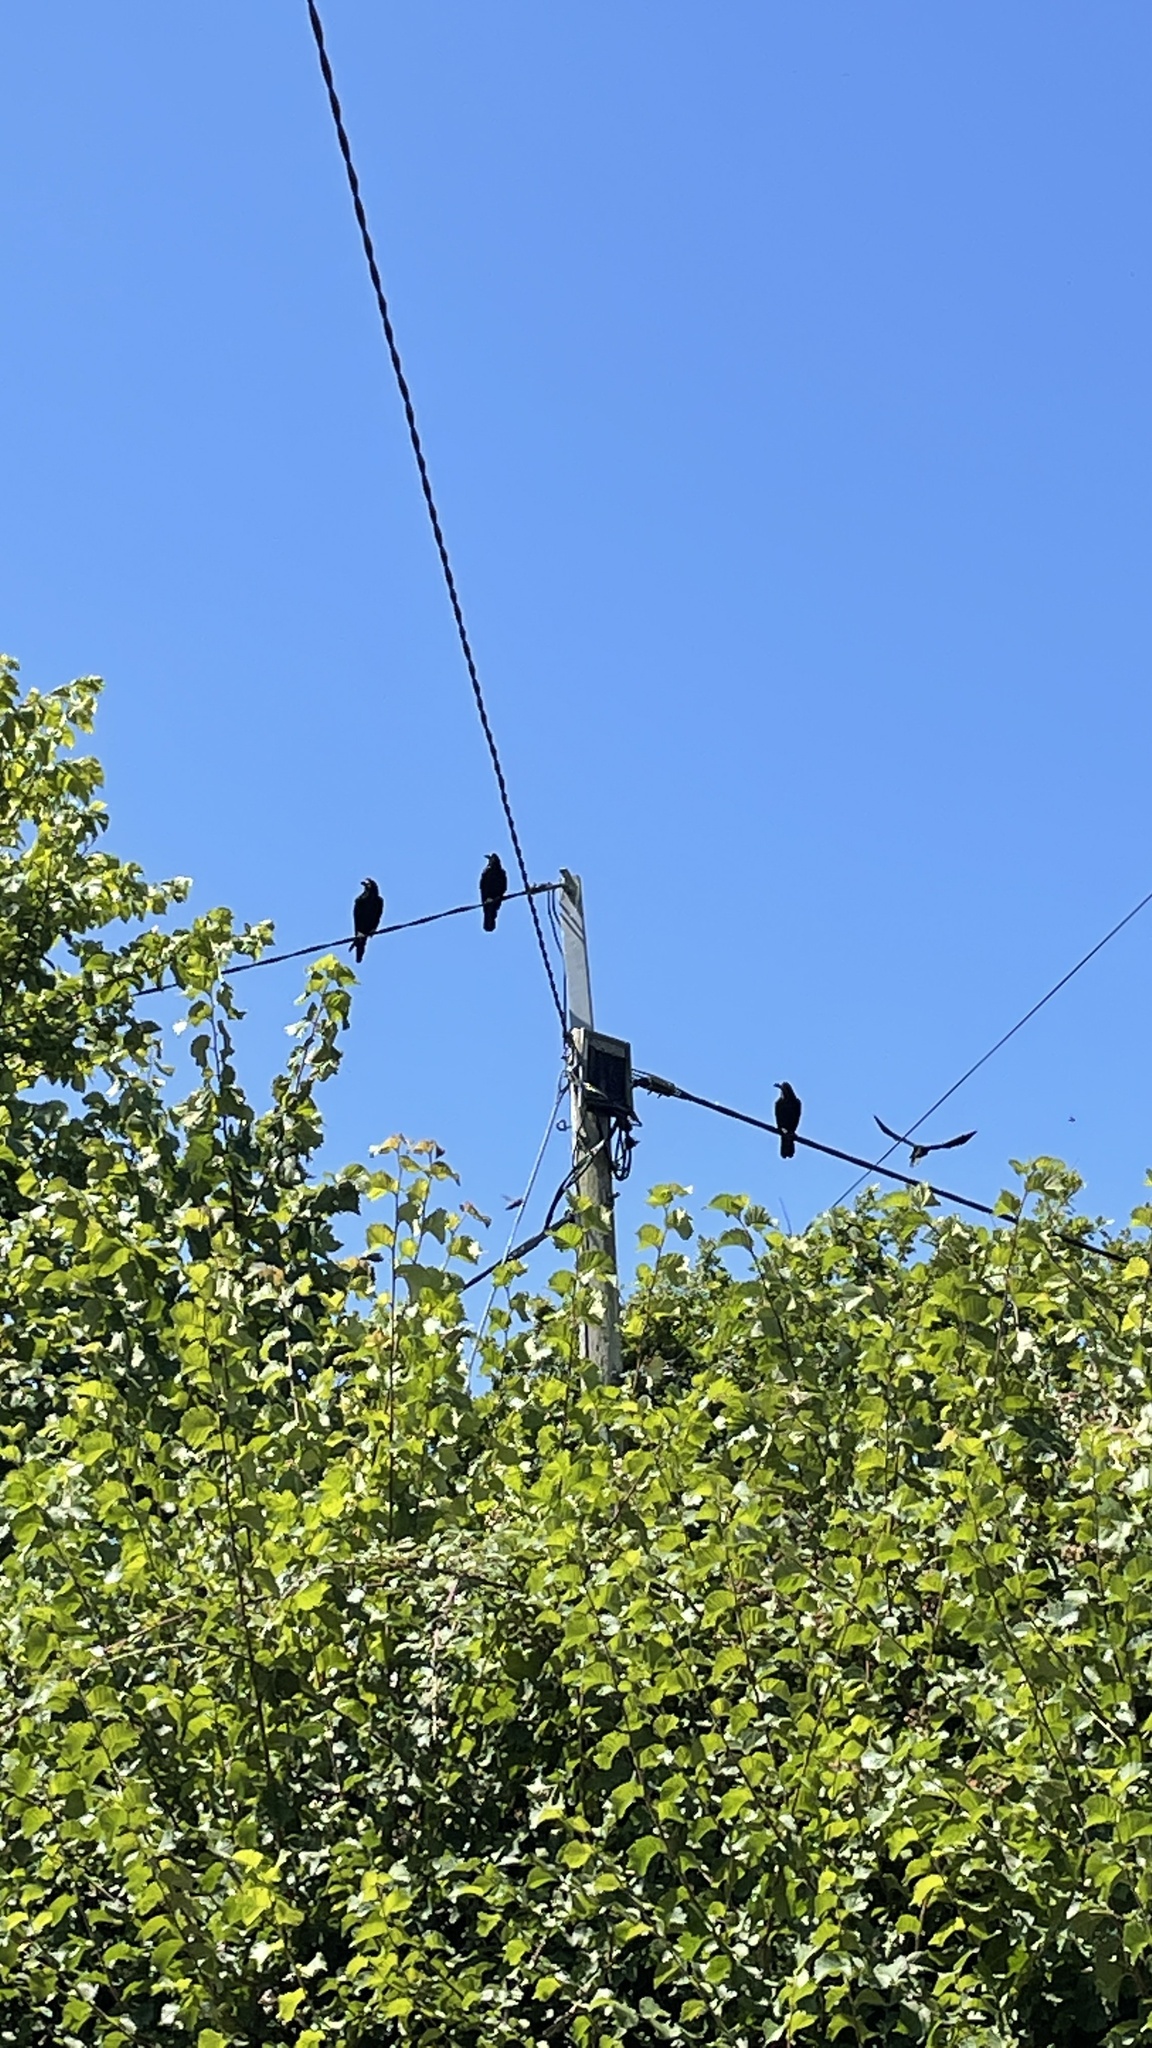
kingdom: Animalia
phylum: Chordata
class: Aves
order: Passeriformes
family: Corvidae
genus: Corvus
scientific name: Corvus frugilegus
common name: Rook
